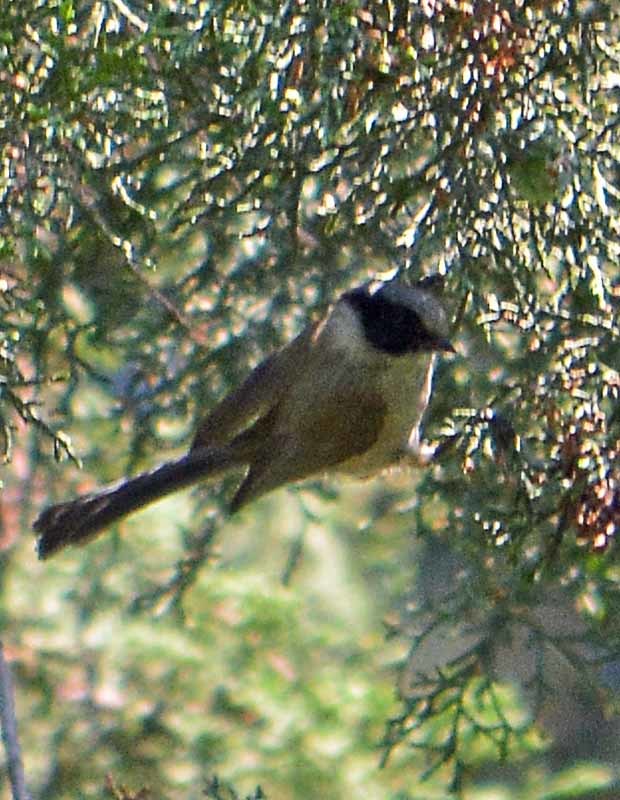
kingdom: Animalia
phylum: Chordata
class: Aves
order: Passeriformes
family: Aegithalidae
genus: Psaltriparus
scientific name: Psaltriparus minimus
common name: American bushtit
